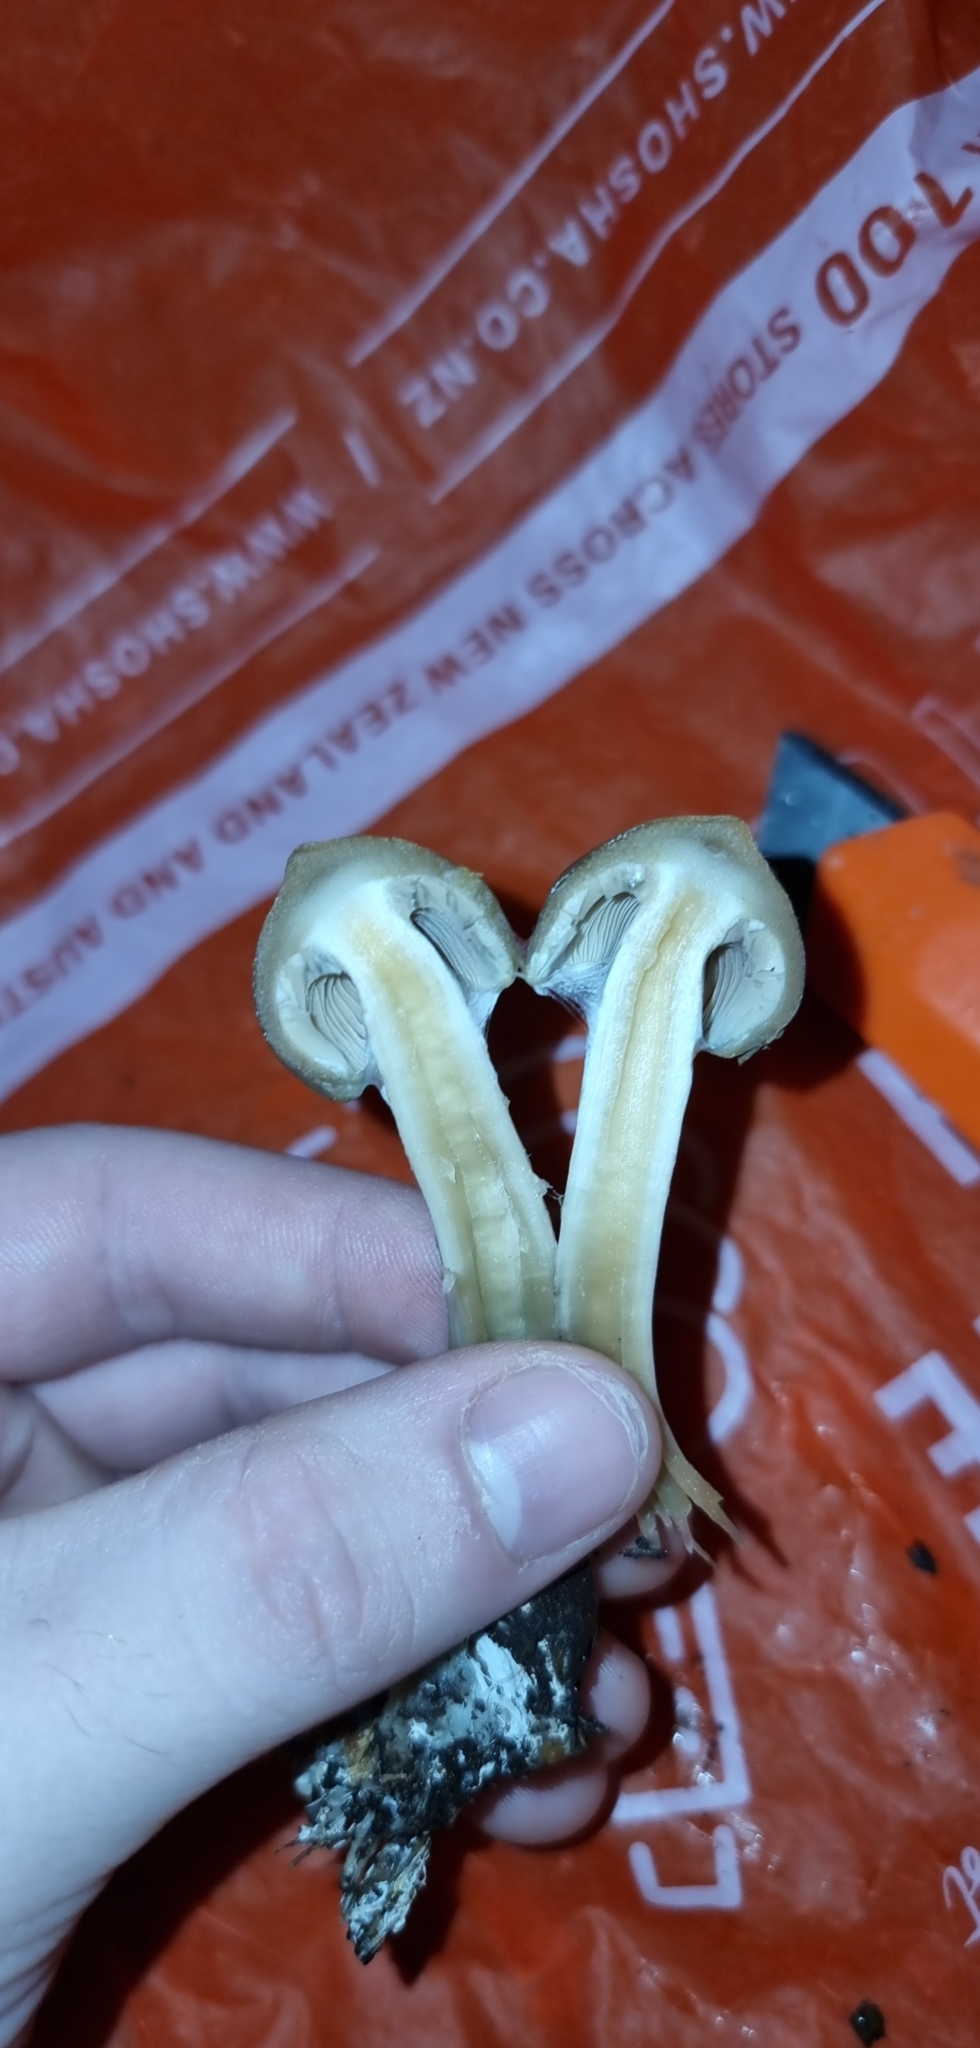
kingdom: Fungi
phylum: Basidiomycota
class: Agaricomycetes
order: Agaricales
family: Hymenogastraceae
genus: Psilocybe
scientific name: Psilocybe subaeruginosa
